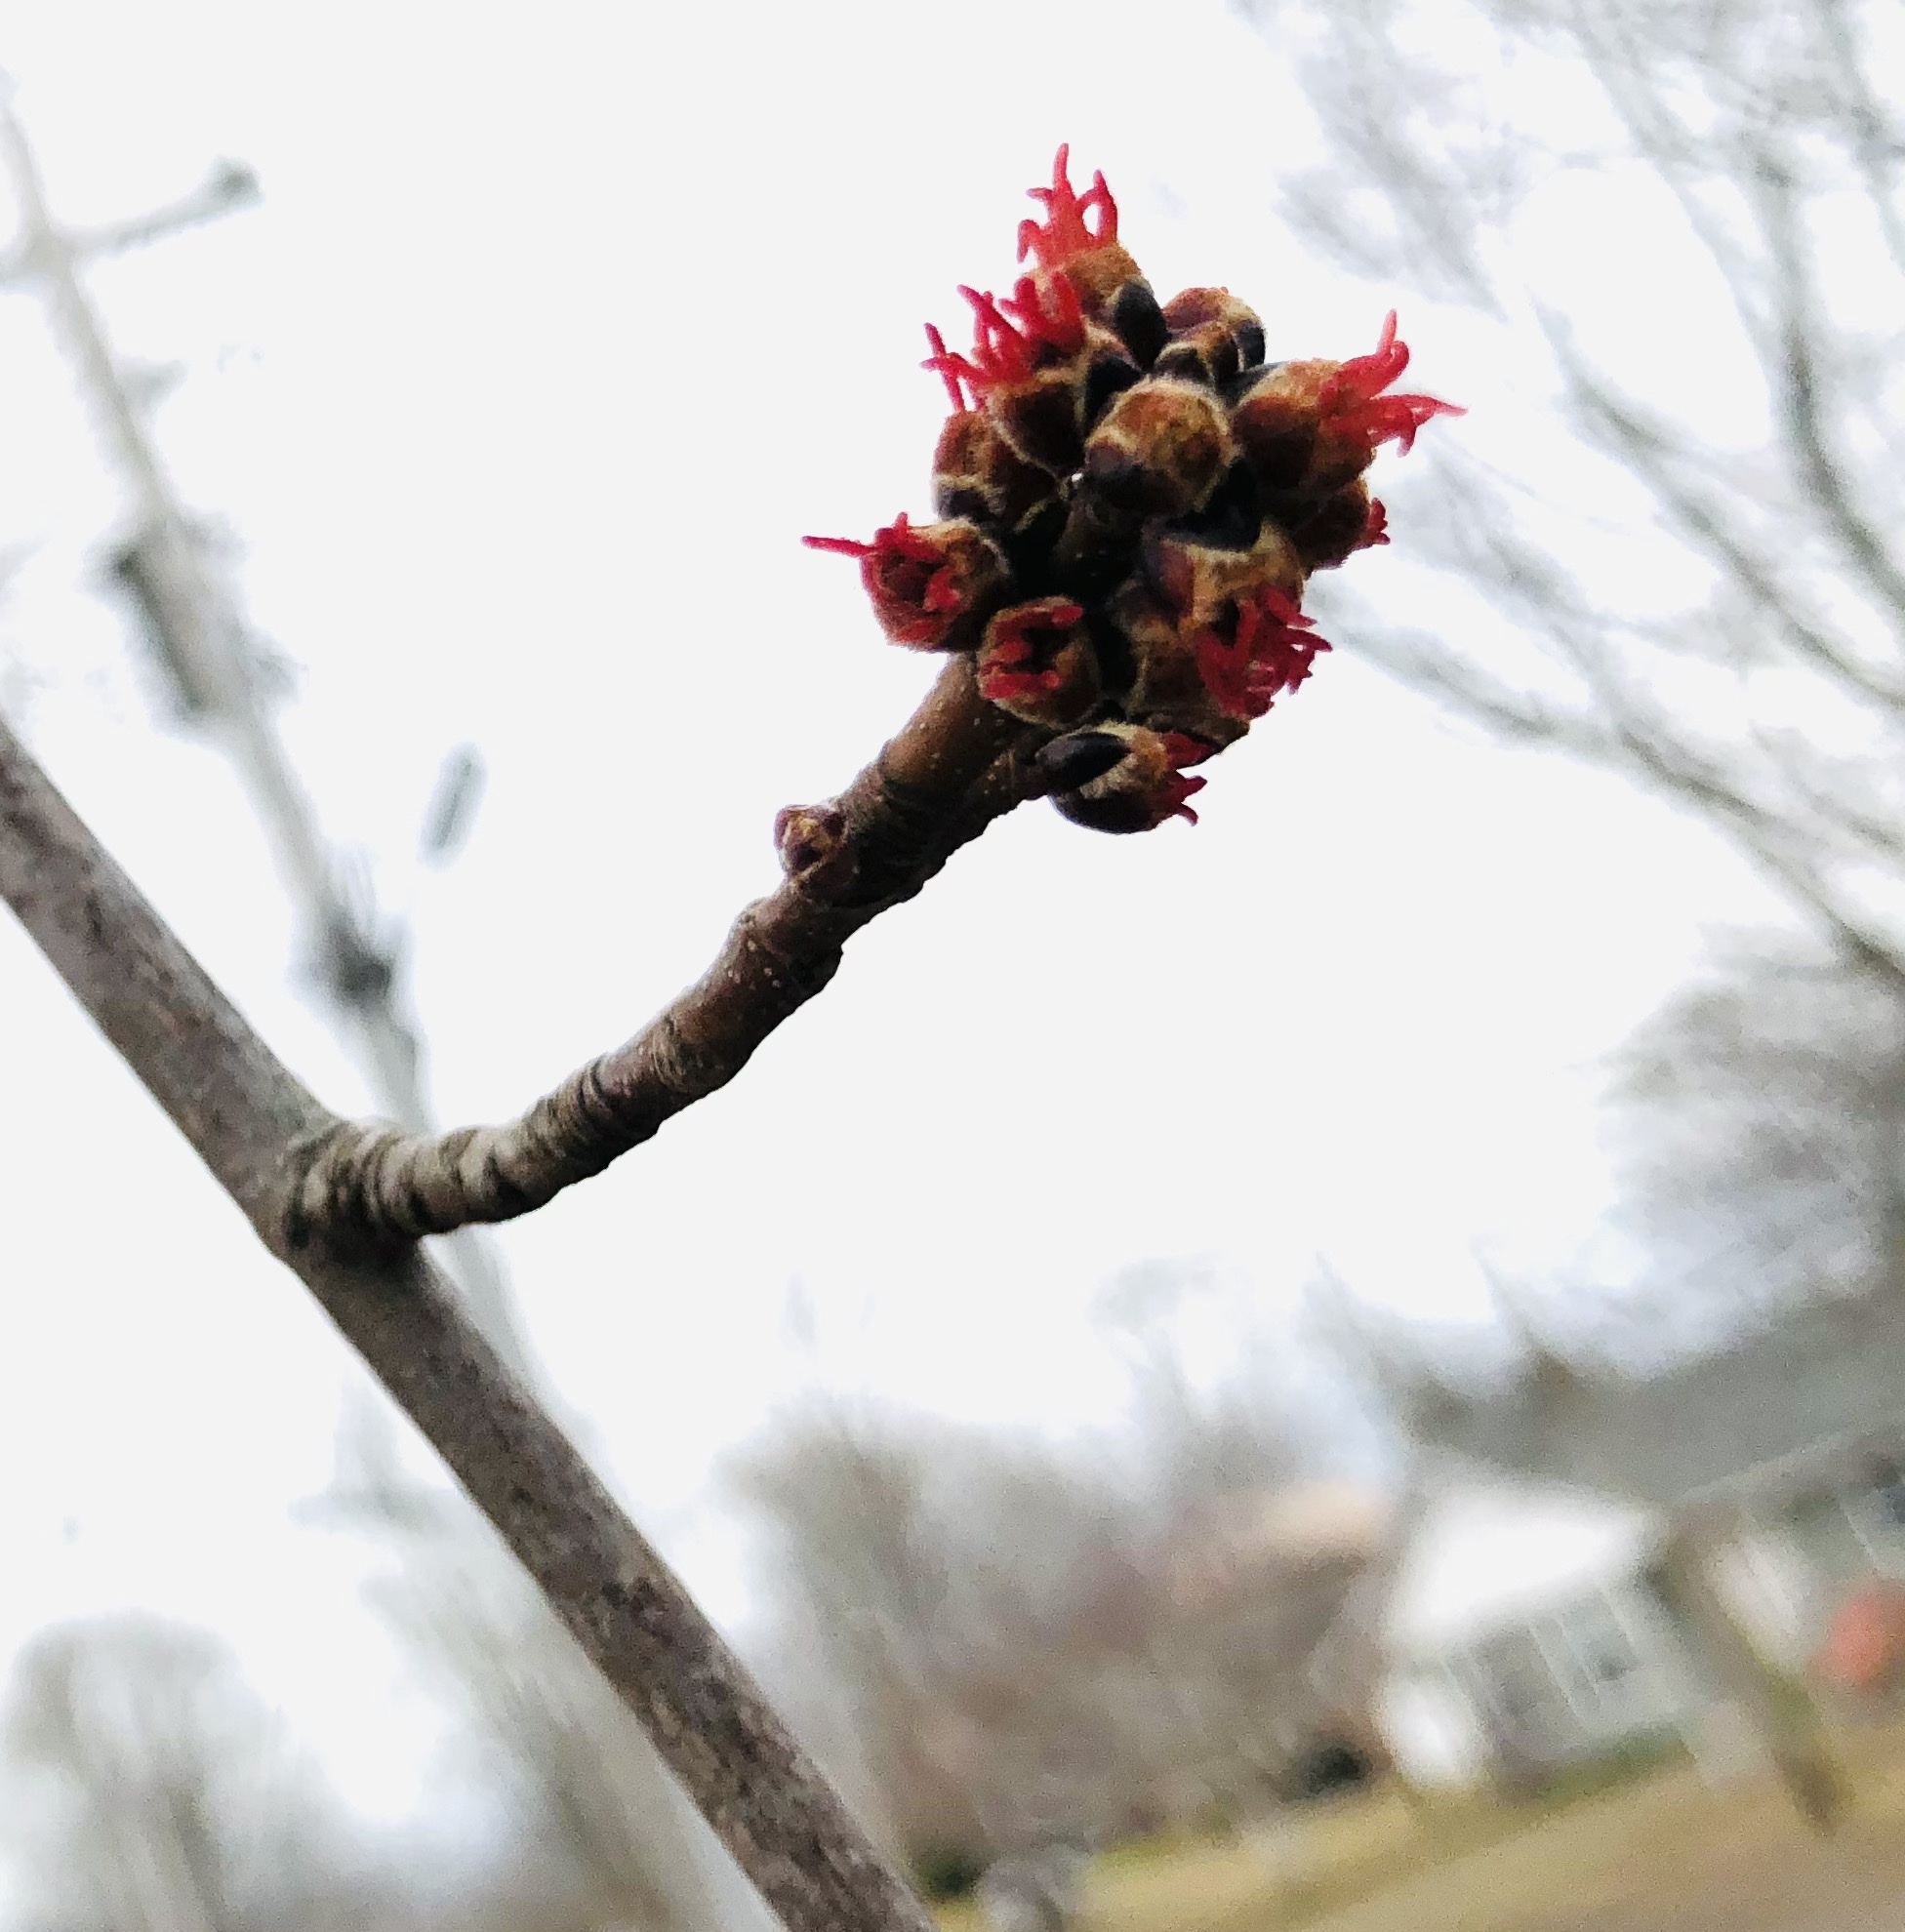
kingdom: Plantae
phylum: Tracheophyta
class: Magnoliopsida
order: Sapindales
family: Sapindaceae
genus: Acer
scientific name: Acer rubrum
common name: Red maple
